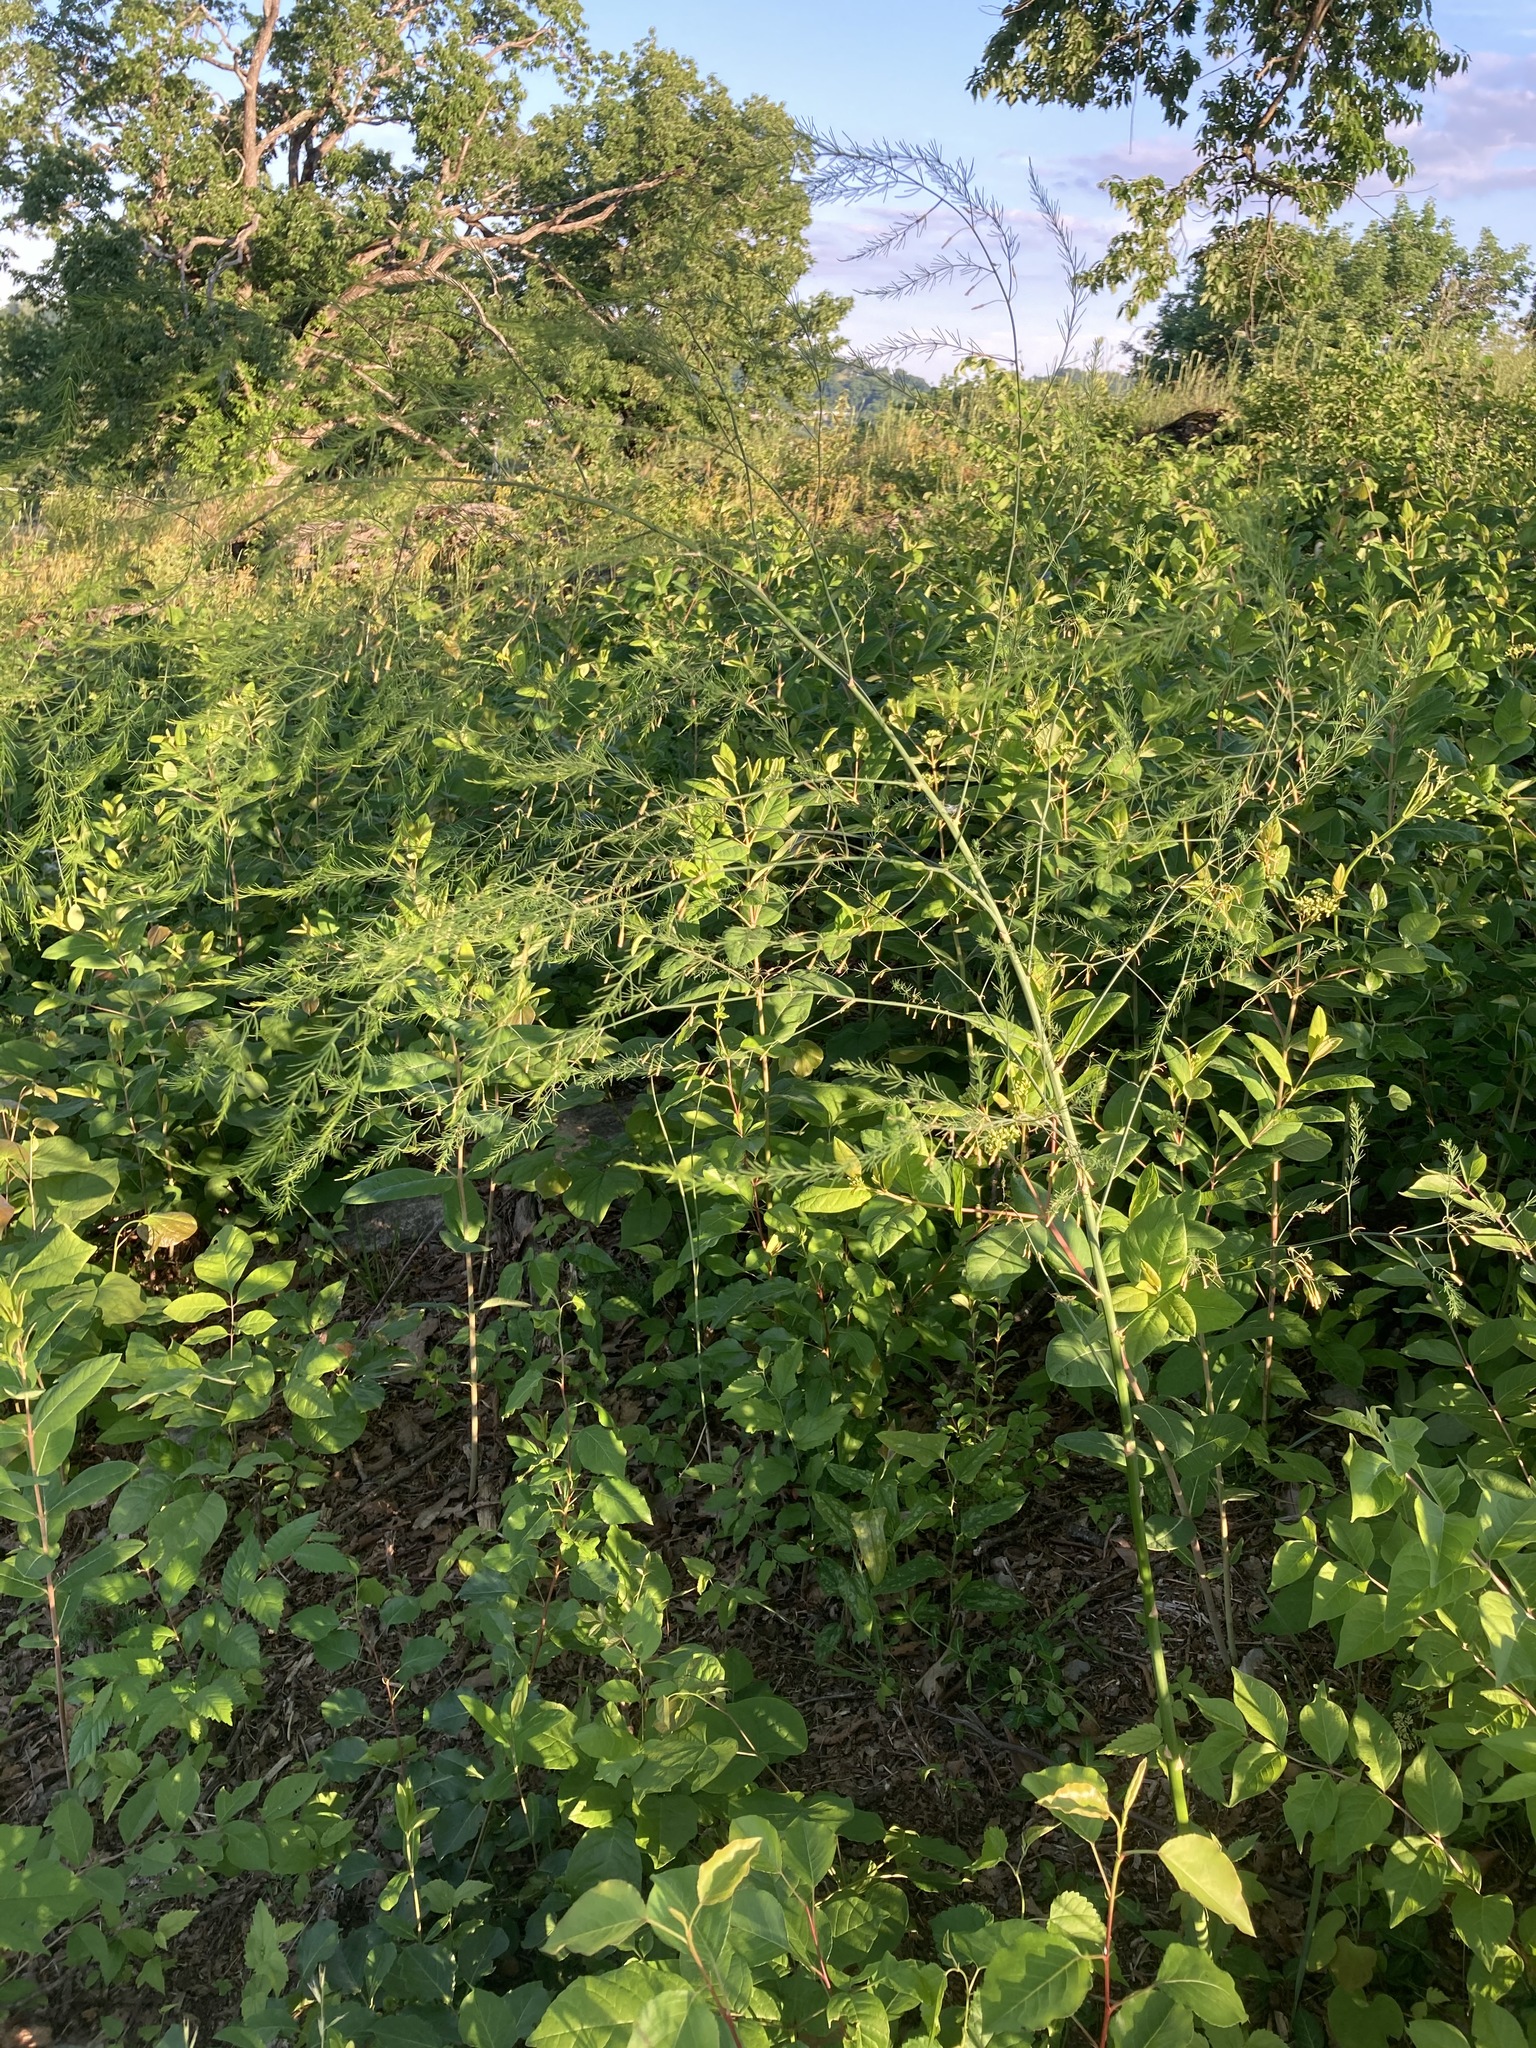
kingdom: Plantae
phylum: Tracheophyta
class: Liliopsida
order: Asparagales
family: Asparagaceae
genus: Asparagus
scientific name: Asparagus officinalis
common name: Garden asparagus
